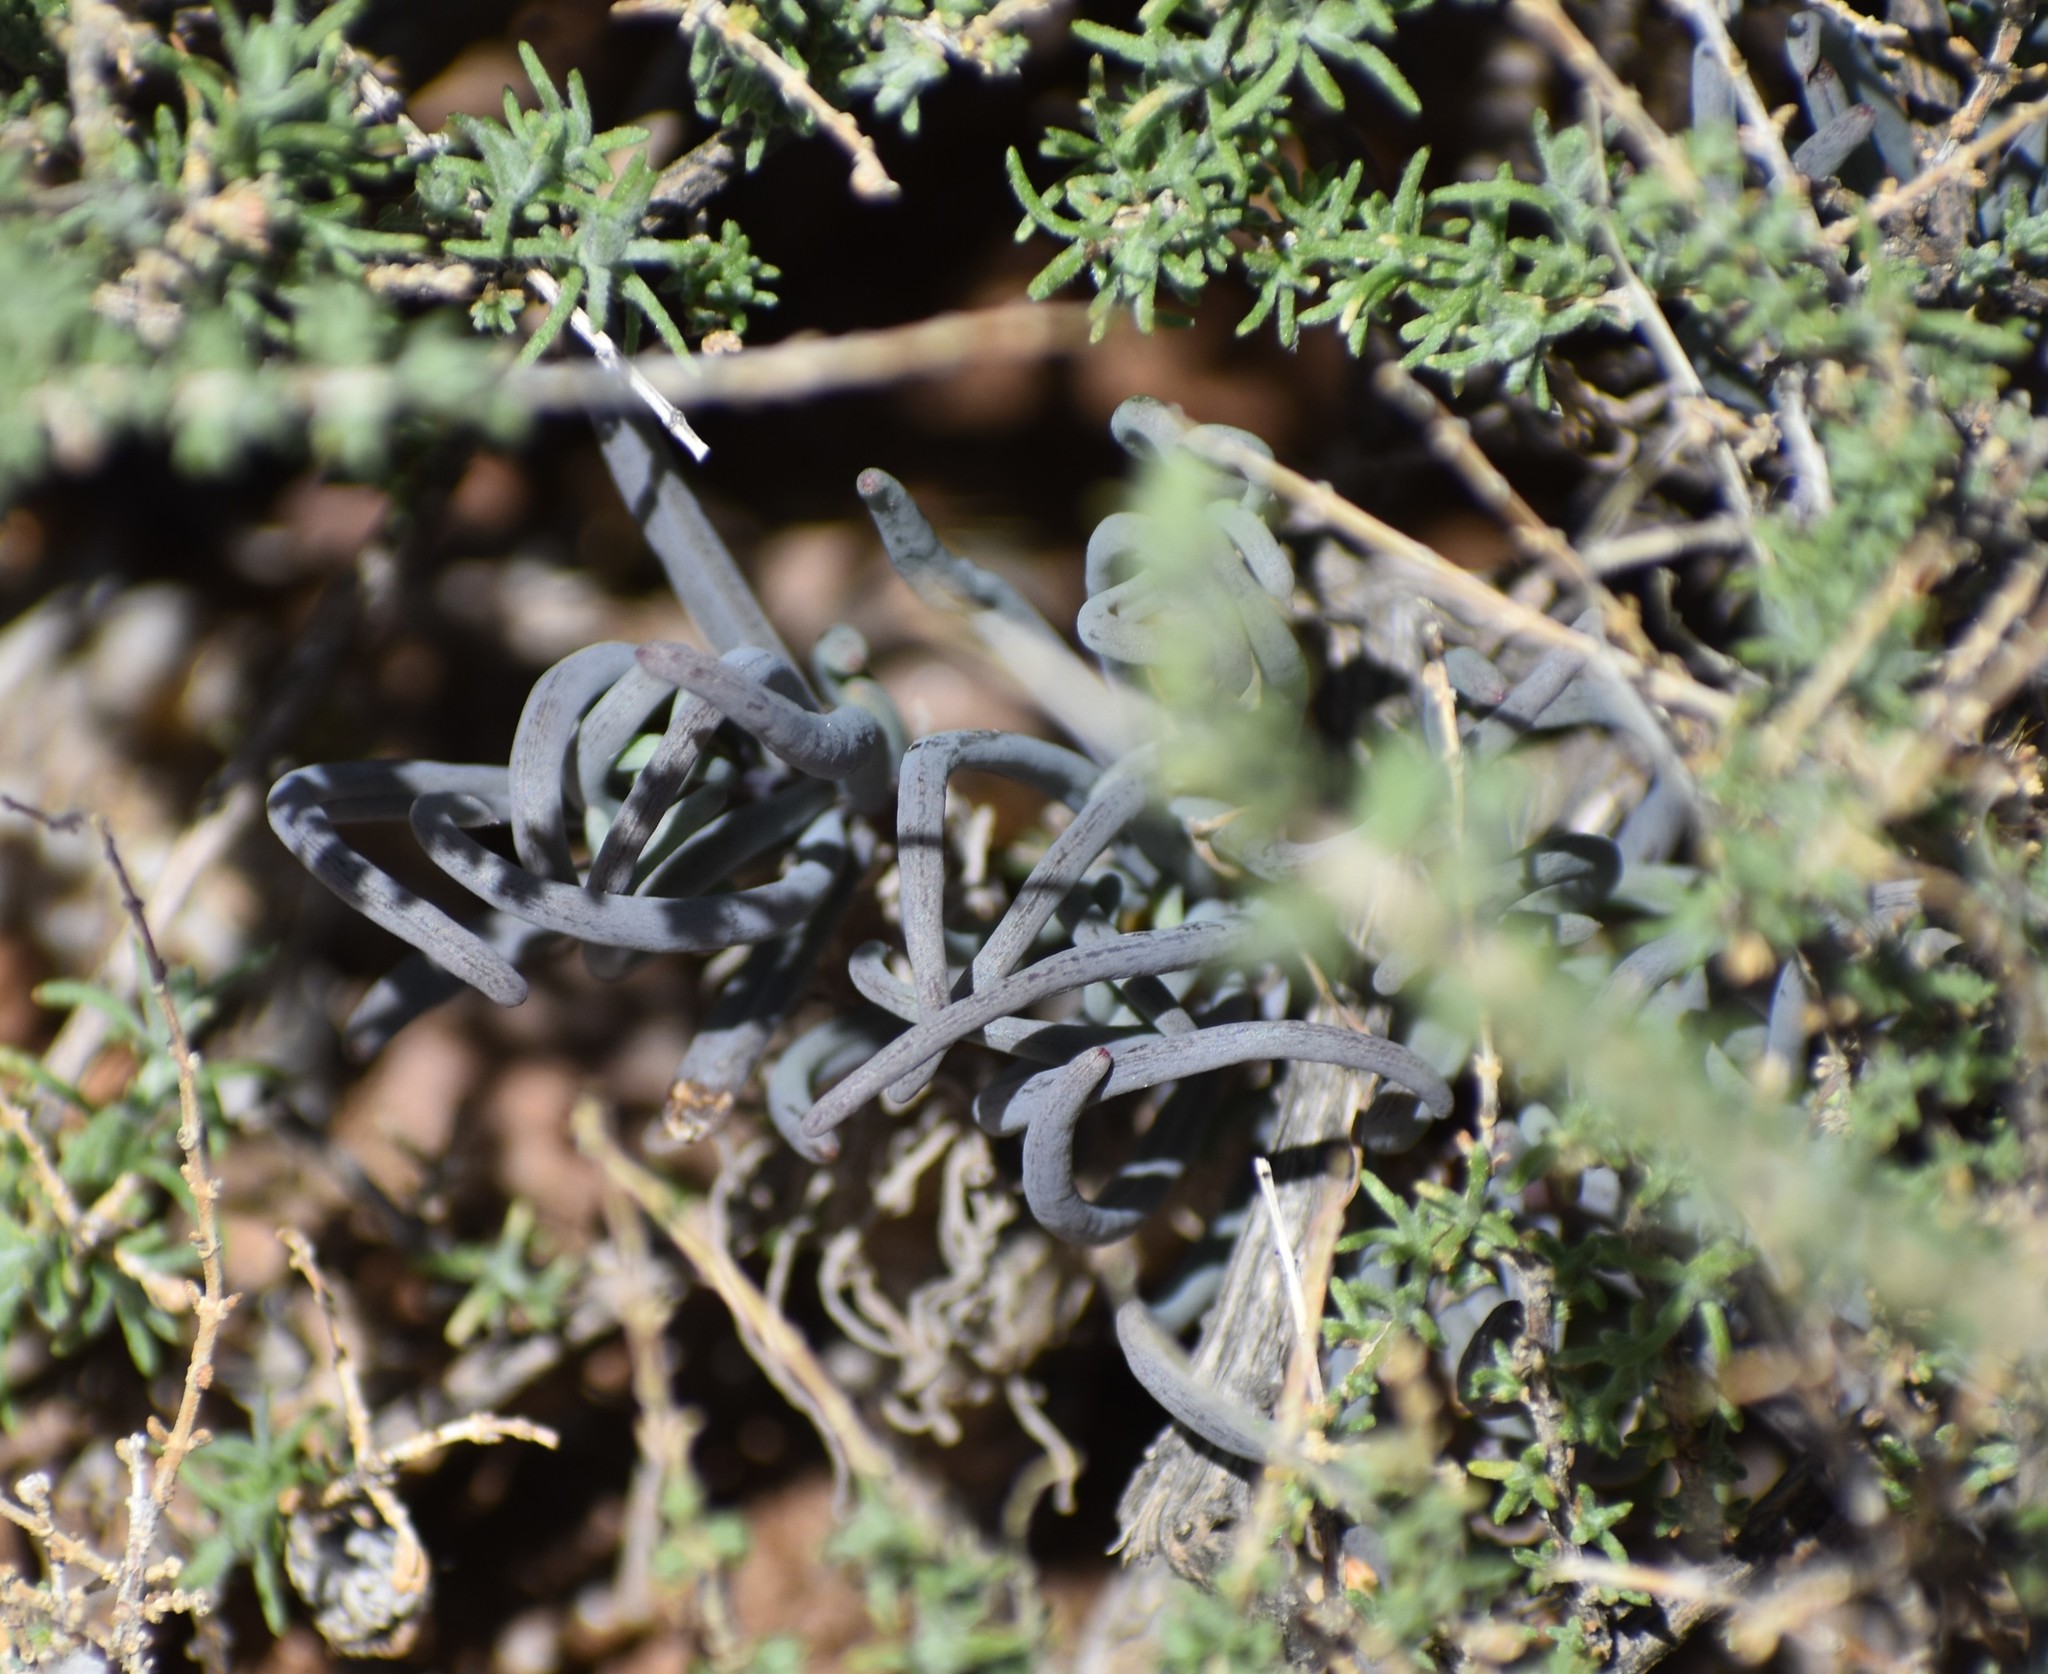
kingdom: Plantae
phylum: Tracheophyta
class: Magnoliopsida
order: Asterales
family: Asteraceae
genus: Crassothonna
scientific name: Crassothonna protecta
